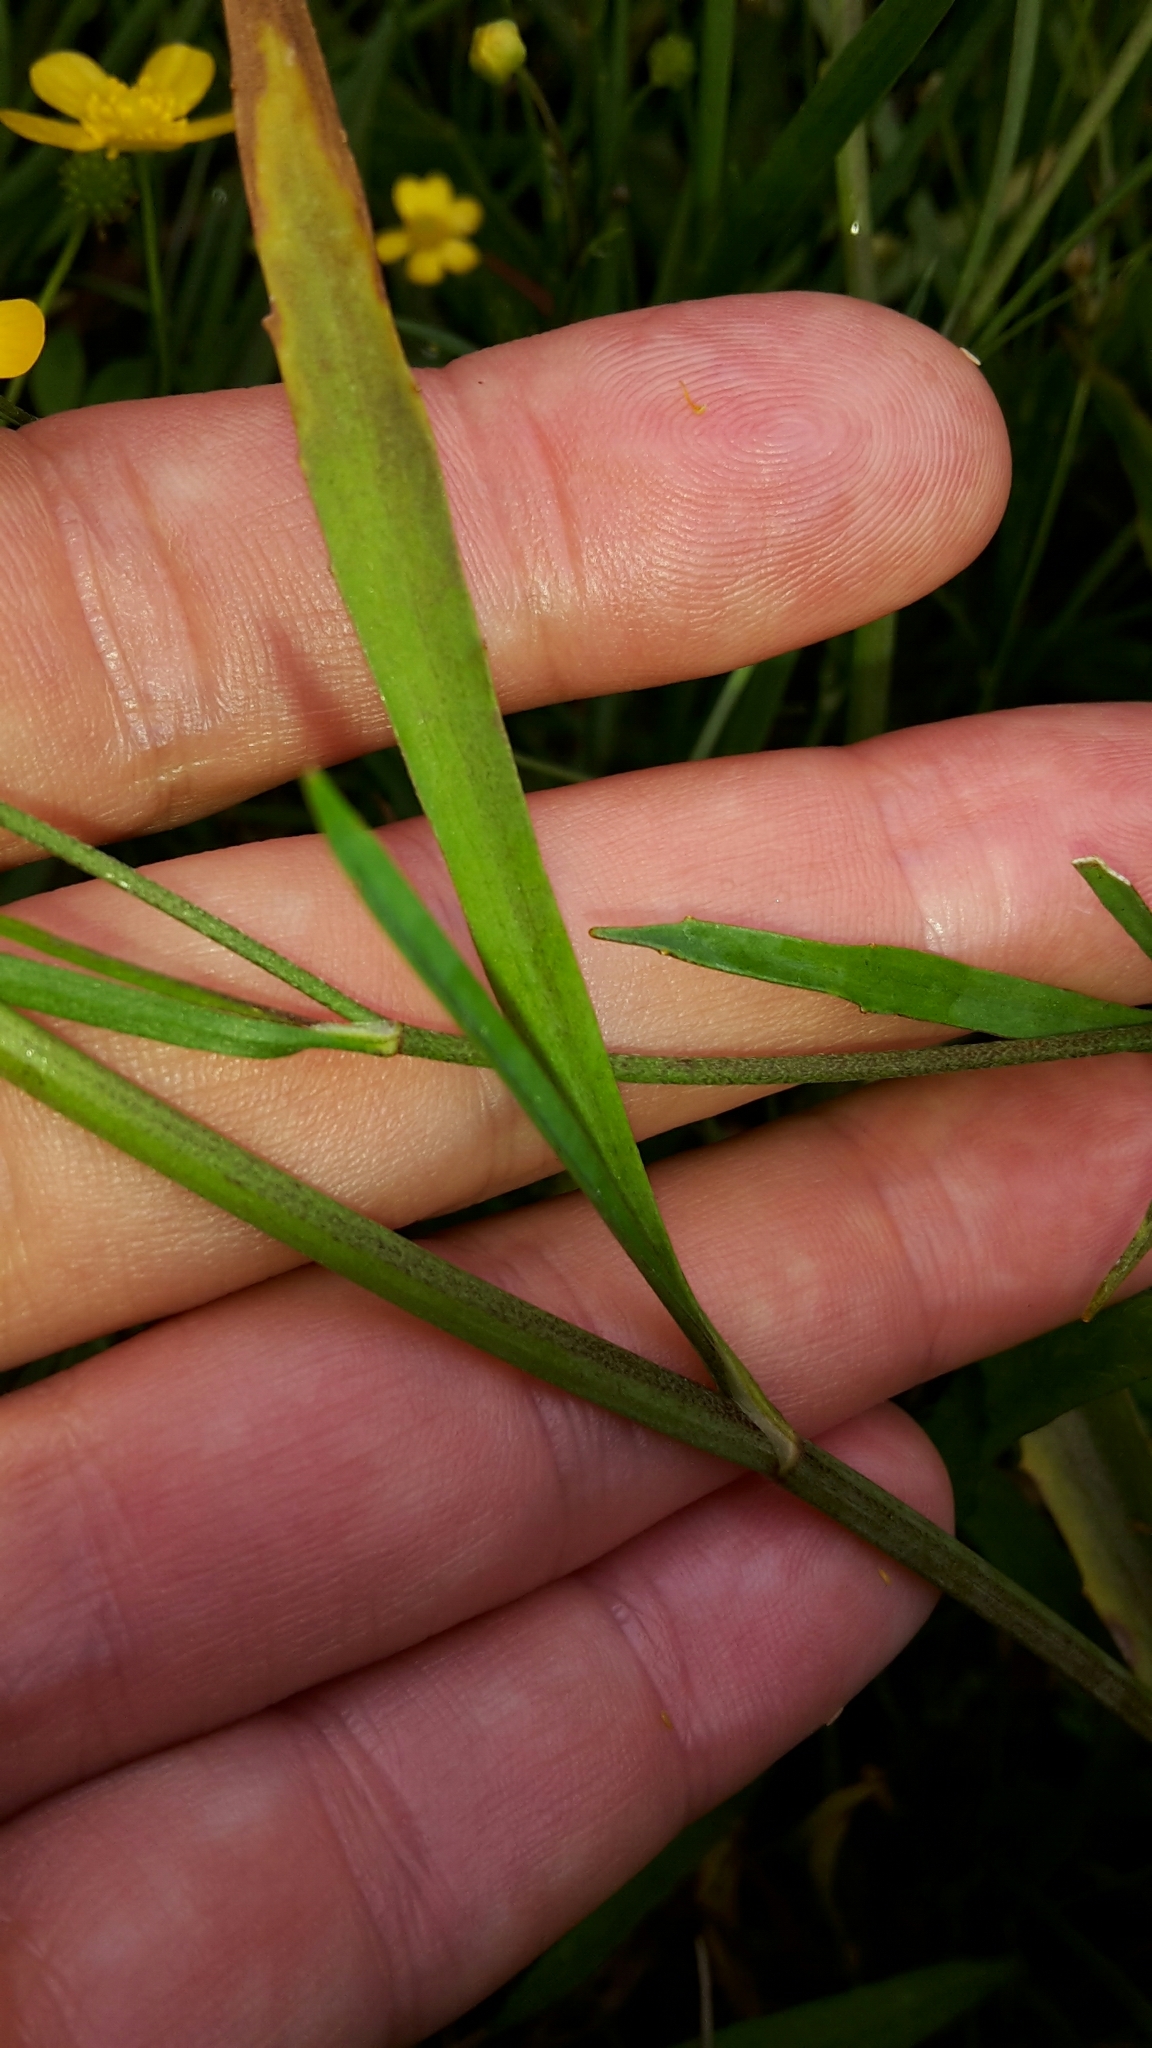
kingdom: Plantae
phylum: Tracheophyta
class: Magnoliopsida
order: Ranunculales
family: Ranunculaceae
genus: Ranunculus
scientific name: Ranunculus flammula
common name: Lesser spearwort
